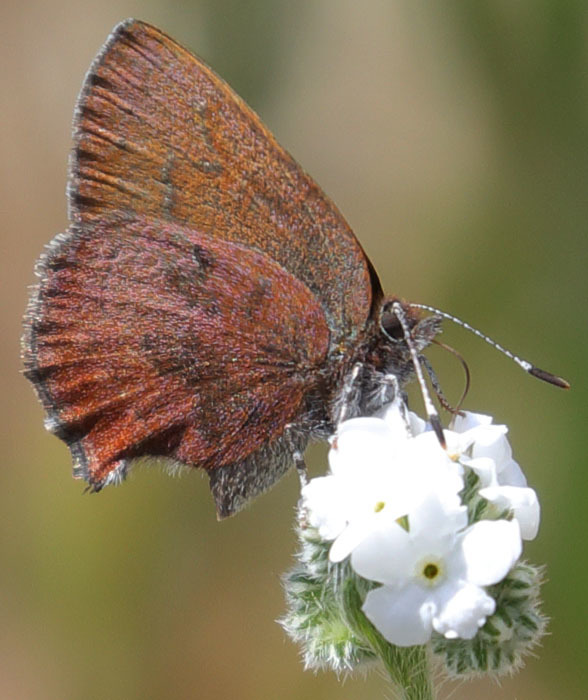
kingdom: Animalia
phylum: Arthropoda
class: Insecta
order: Lepidoptera
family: Lycaenidae
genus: Incisalia
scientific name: Incisalia irioides
